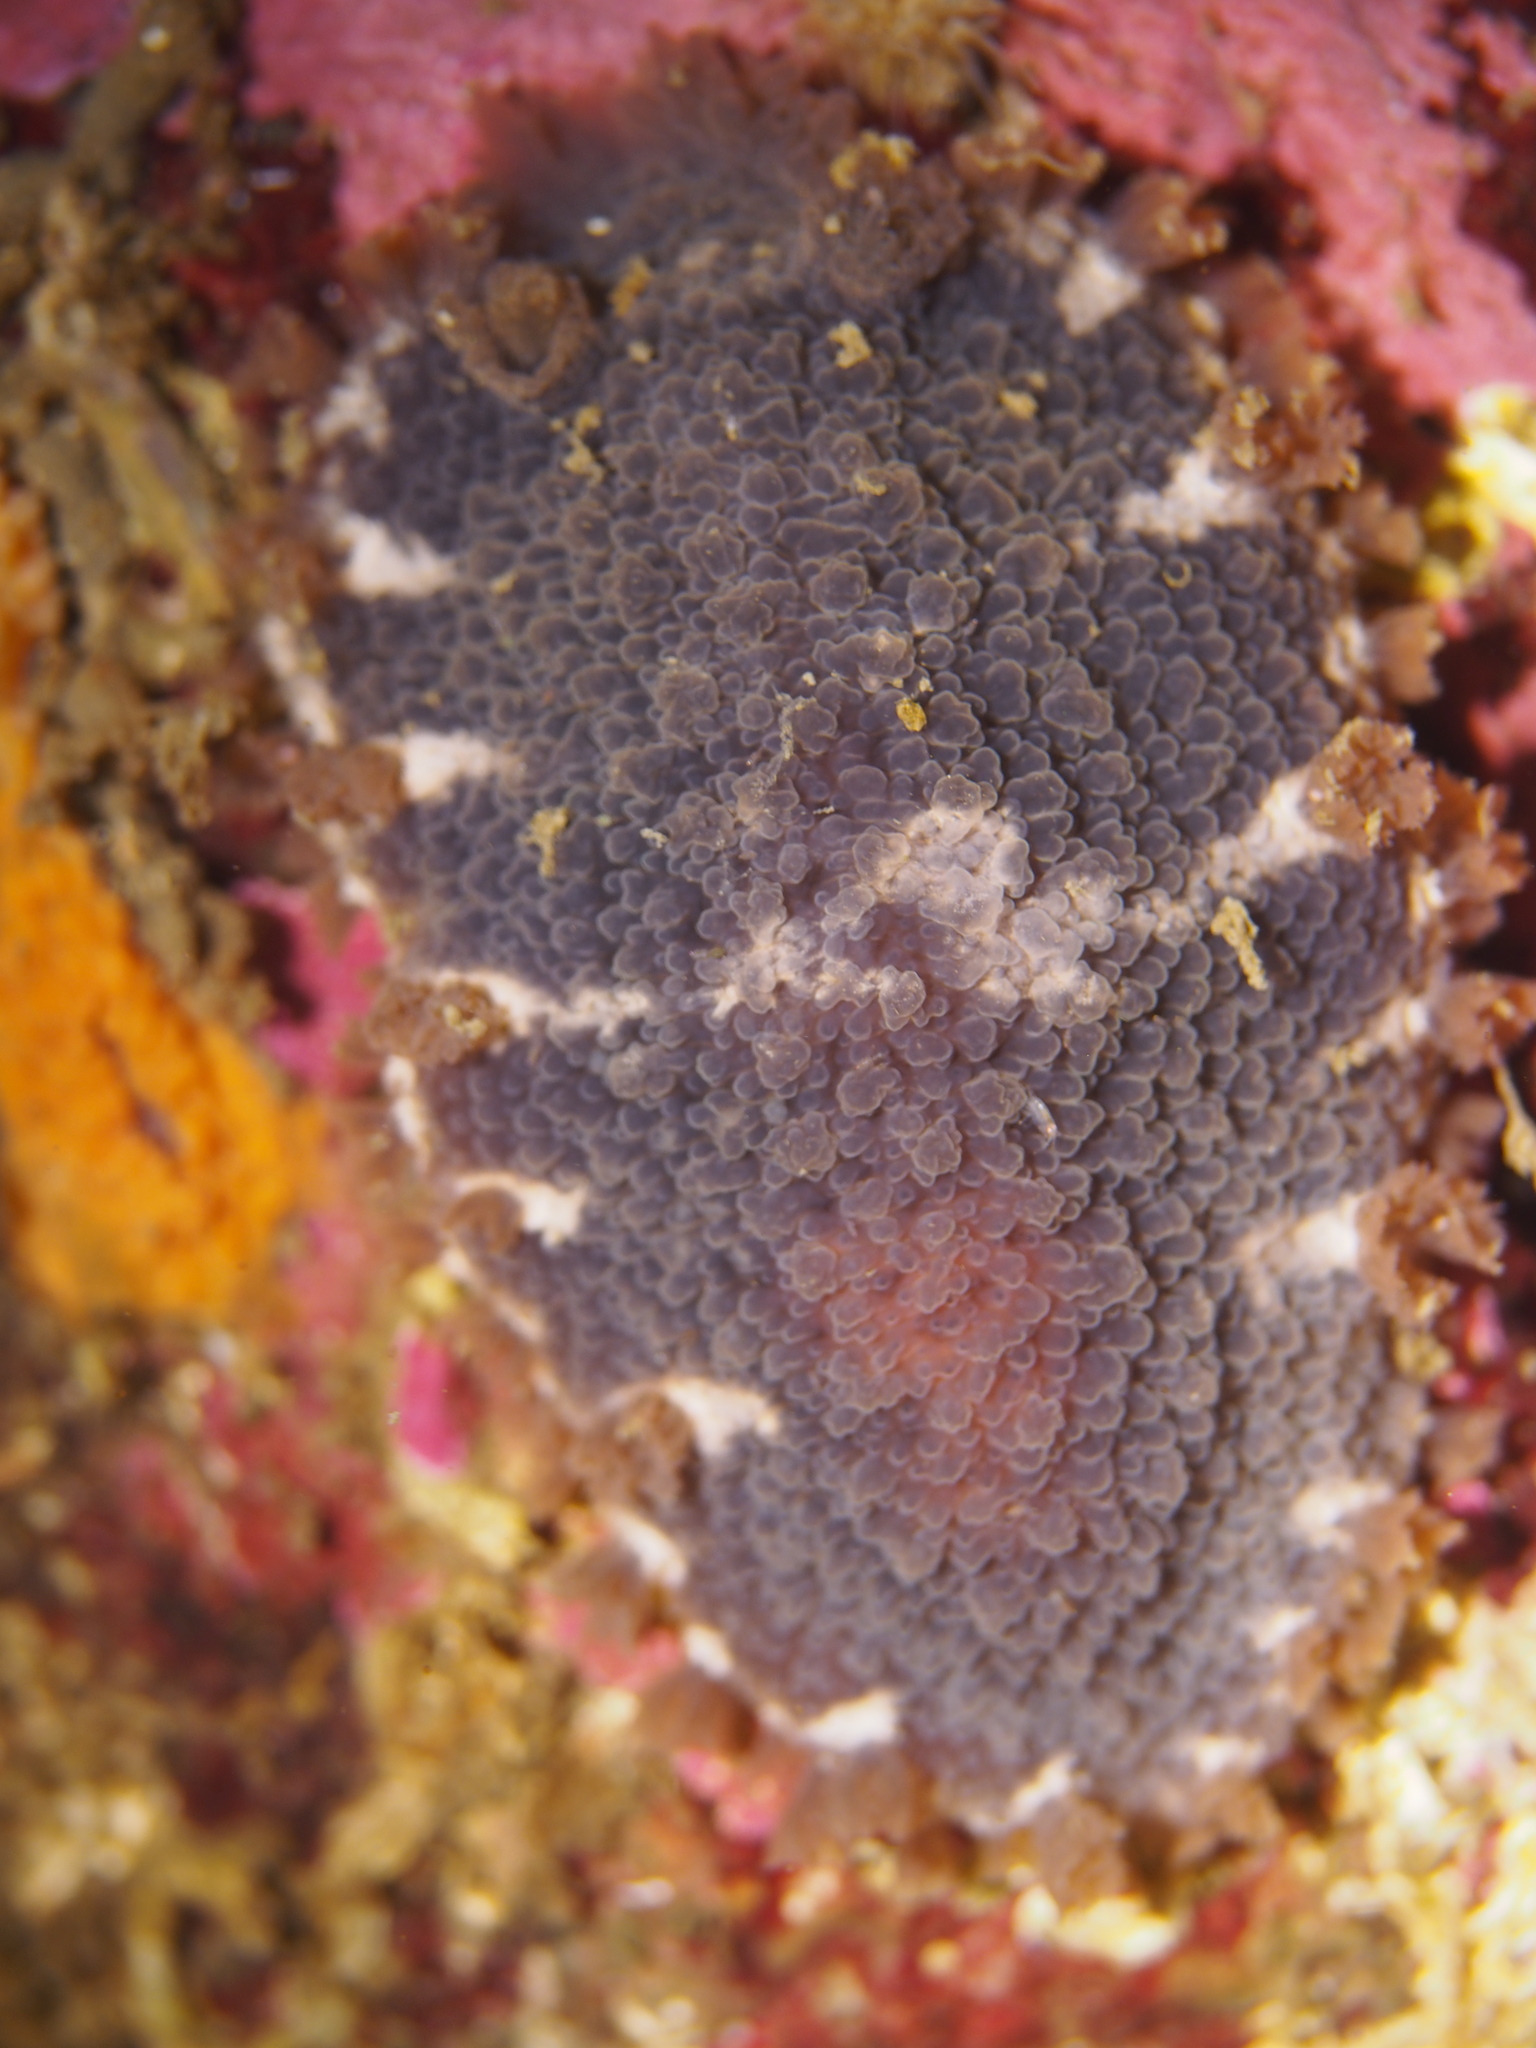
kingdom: Animalia
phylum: Mollusca
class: Gastropoda
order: Nudibranchia
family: Tritoniidae
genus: Tritonia
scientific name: Tritonia hombergii
